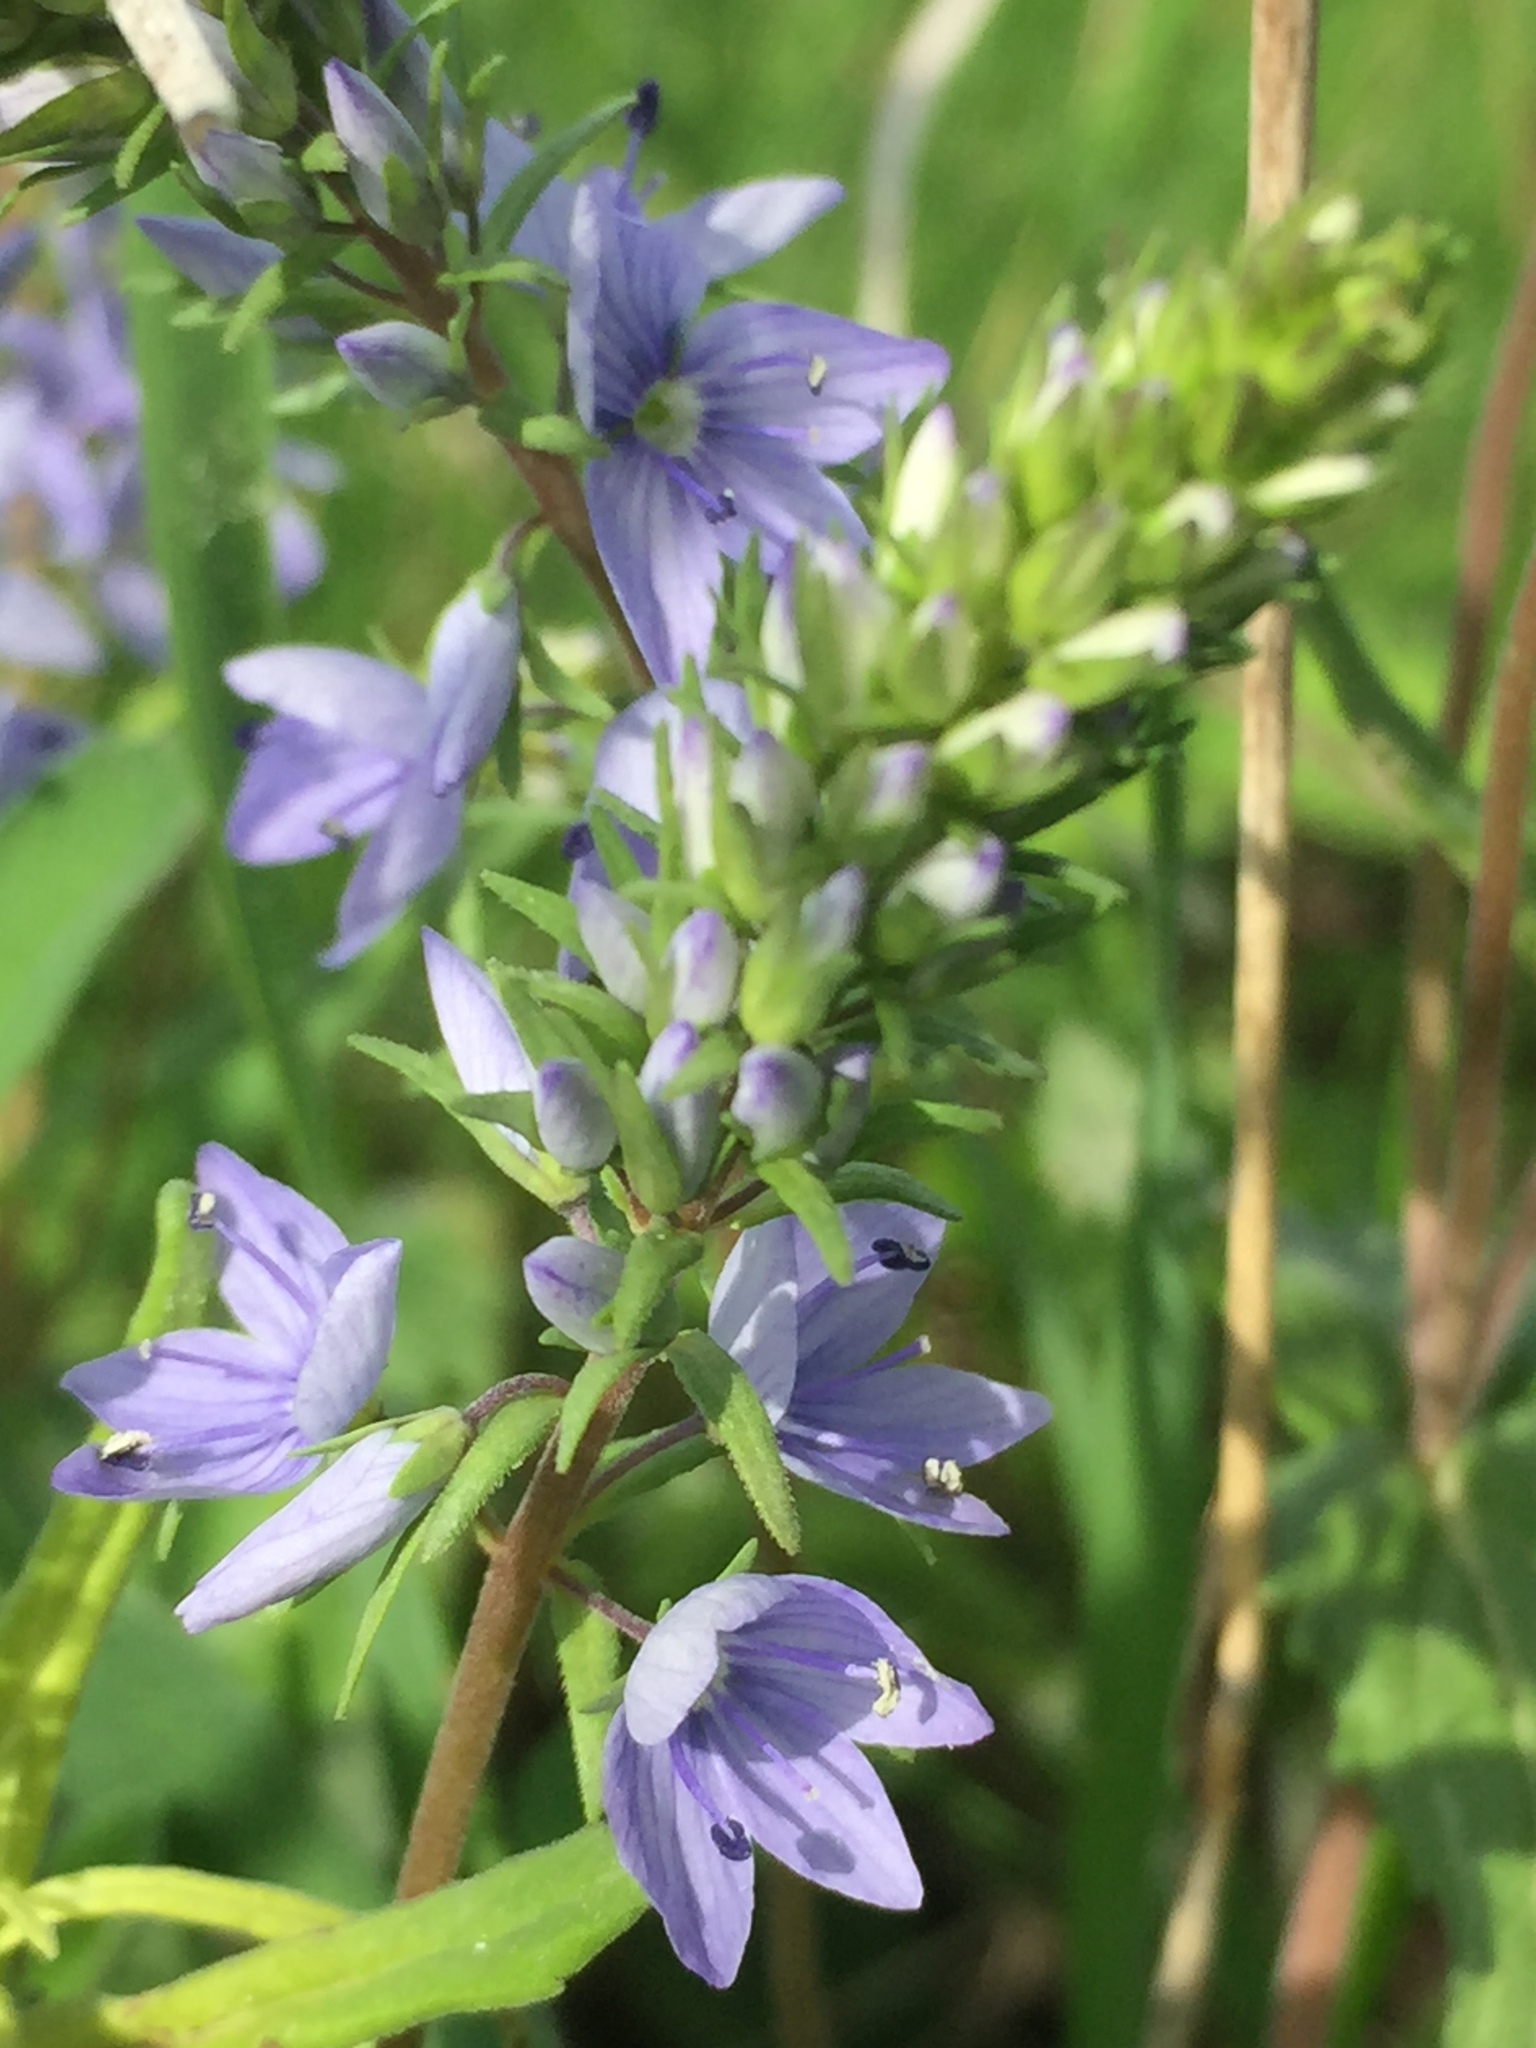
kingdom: Plantae
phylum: Tracheophyta
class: Magnoliopsida
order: Lamiales
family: Plantaginaceae
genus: Veronica
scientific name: Veronica prostrata
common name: Prostrate speedwell
